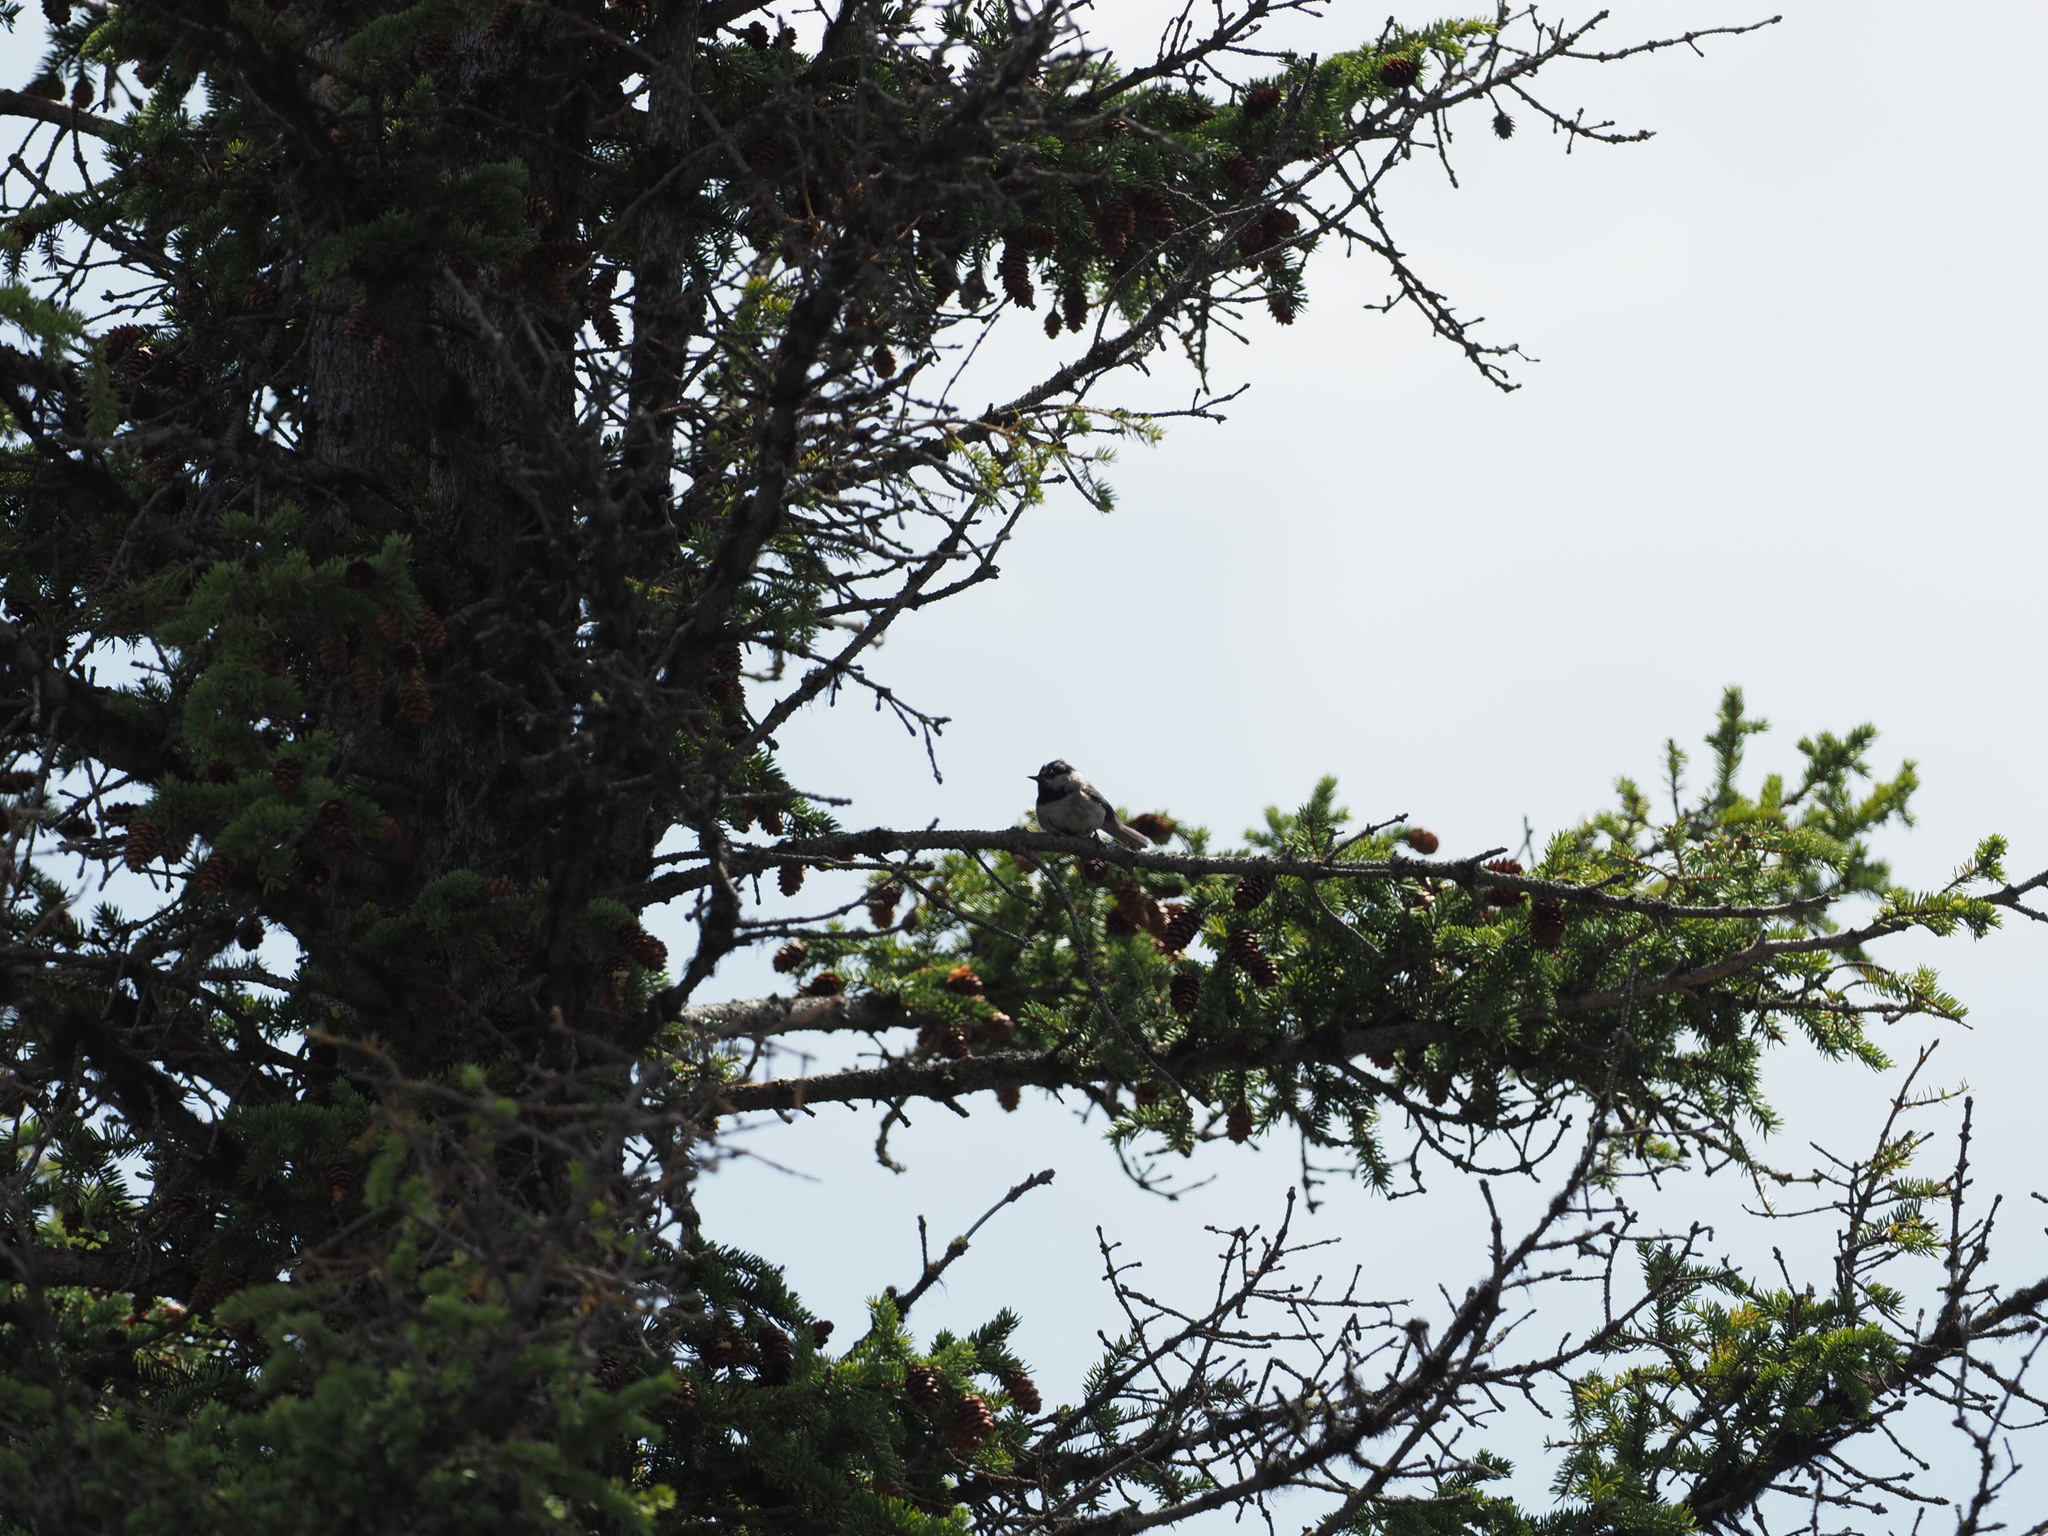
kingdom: Animalia
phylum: Chordata
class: Aves
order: Passeriformes
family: Paridae
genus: Poecile
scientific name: Poecile gambeli
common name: Mountain chickadee
